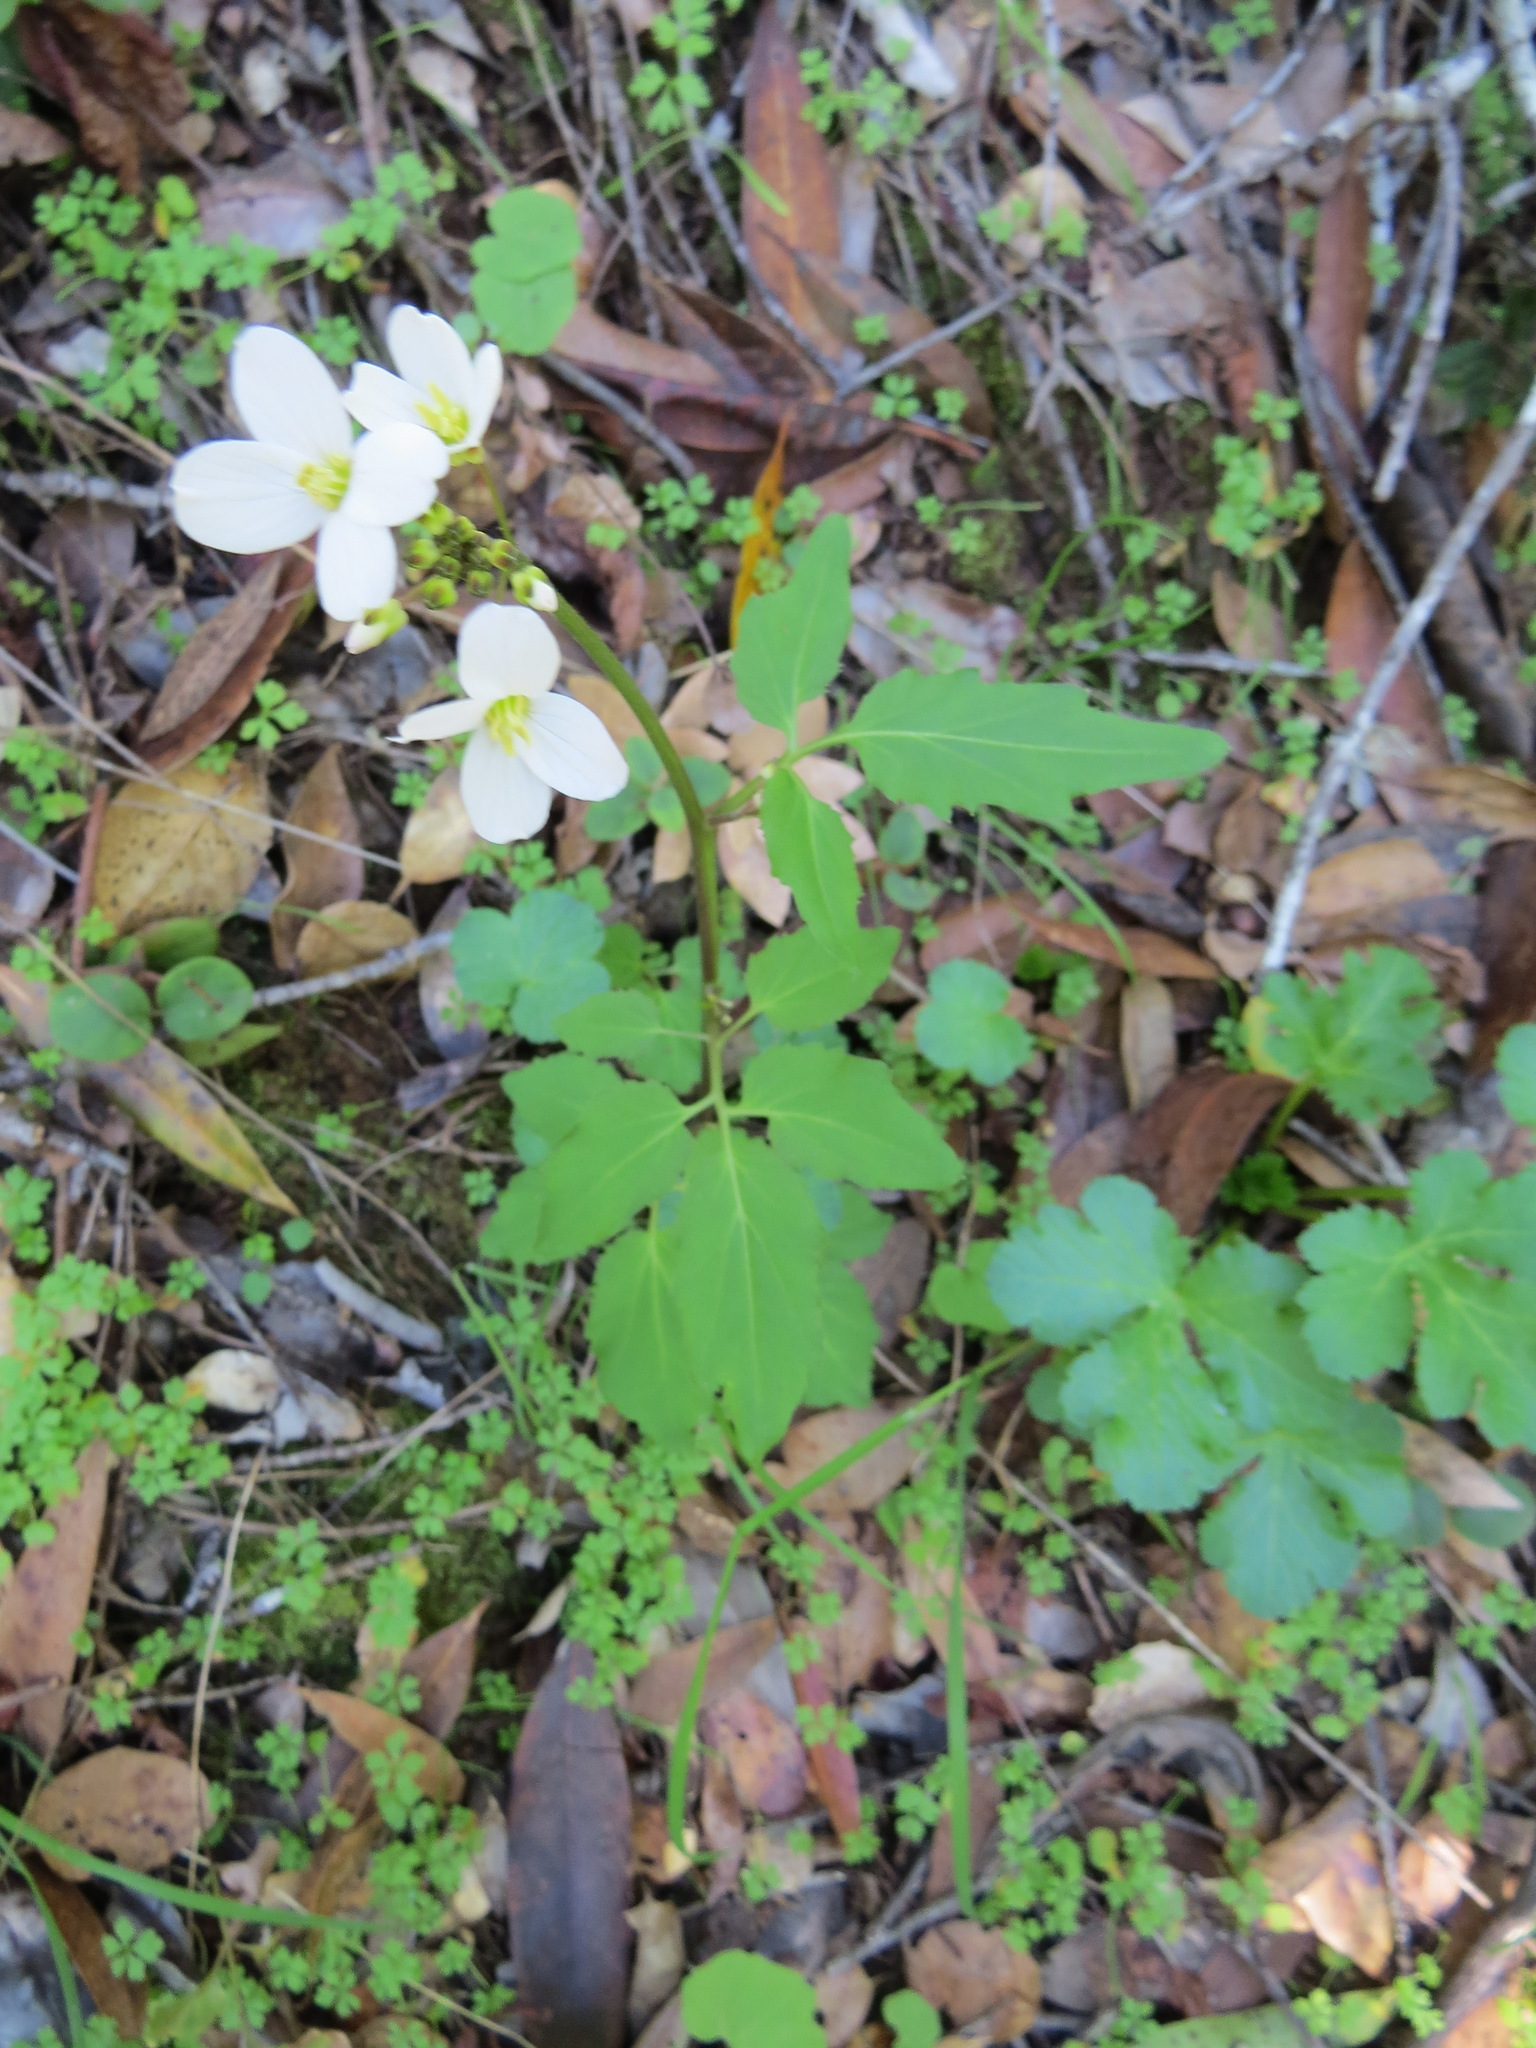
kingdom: Plantae
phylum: Tracheophyta
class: Magnoliopsida
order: Brassicales
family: Brassicaceae
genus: Cardamine
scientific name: Cardamine californica
